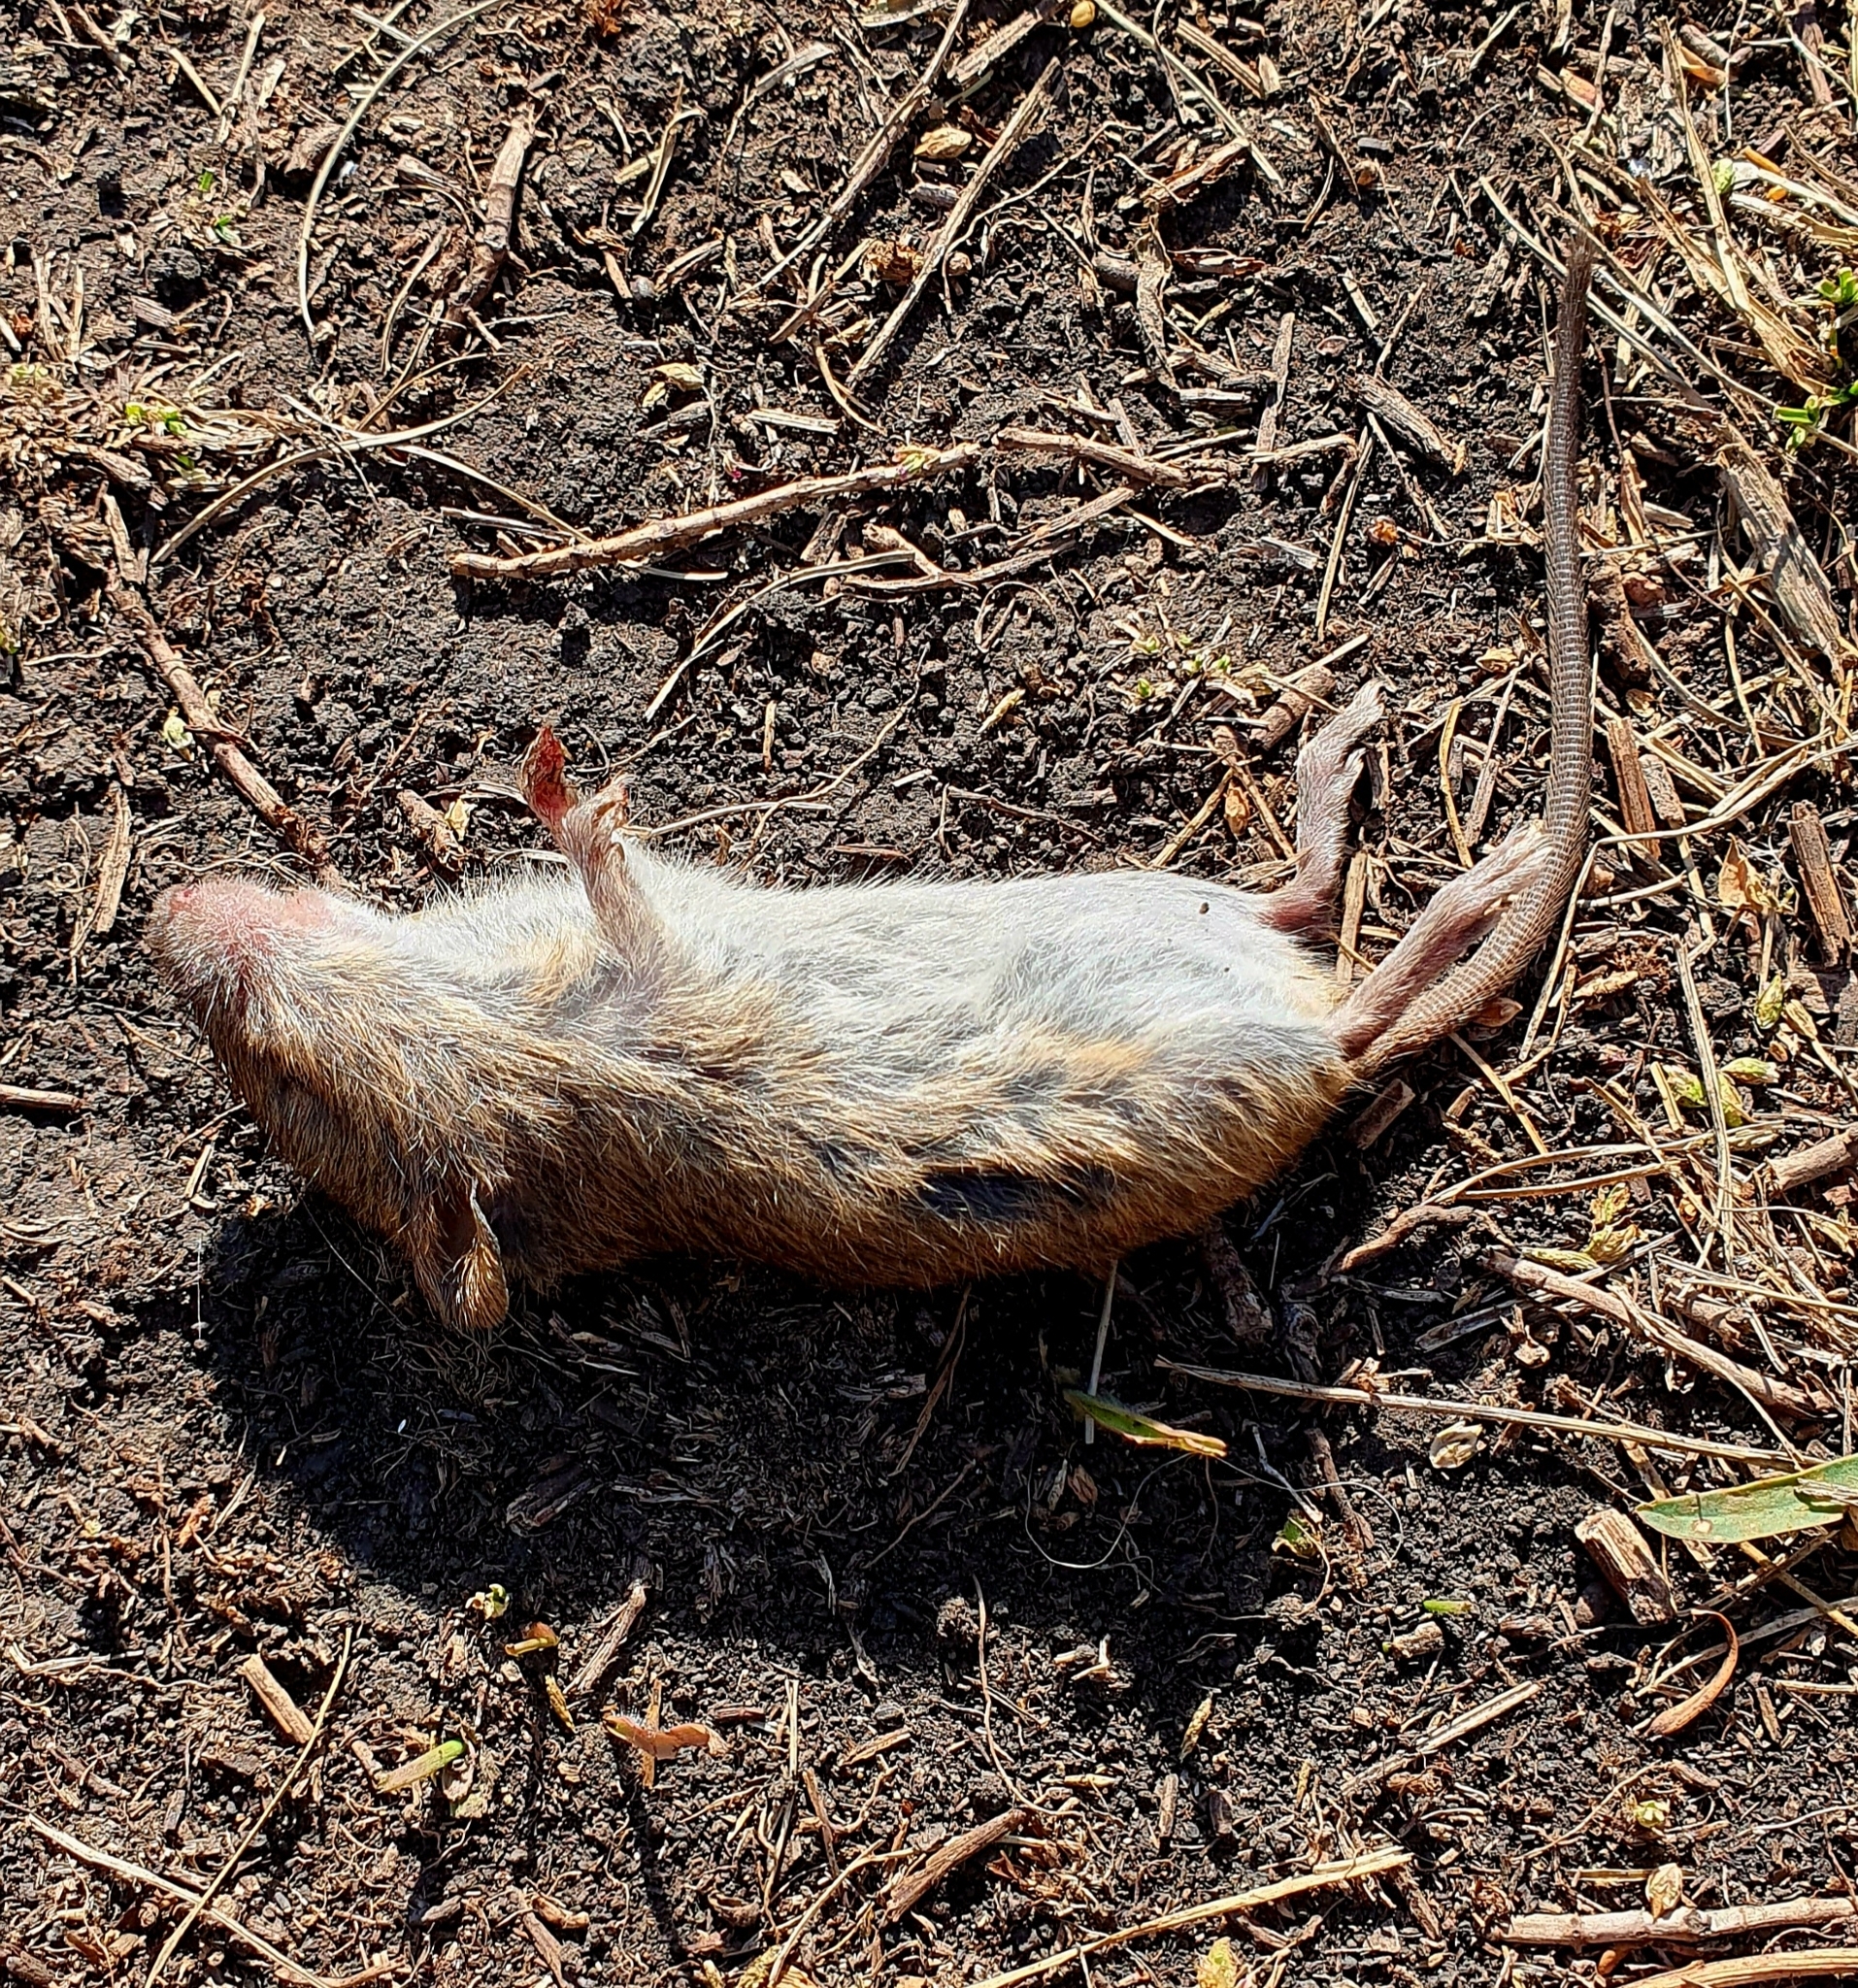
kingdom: Animalia
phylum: Chordata
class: Mammalia
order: Rodentia
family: Muridae
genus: Micromys
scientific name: Micromys minutus
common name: Harvest mouse
